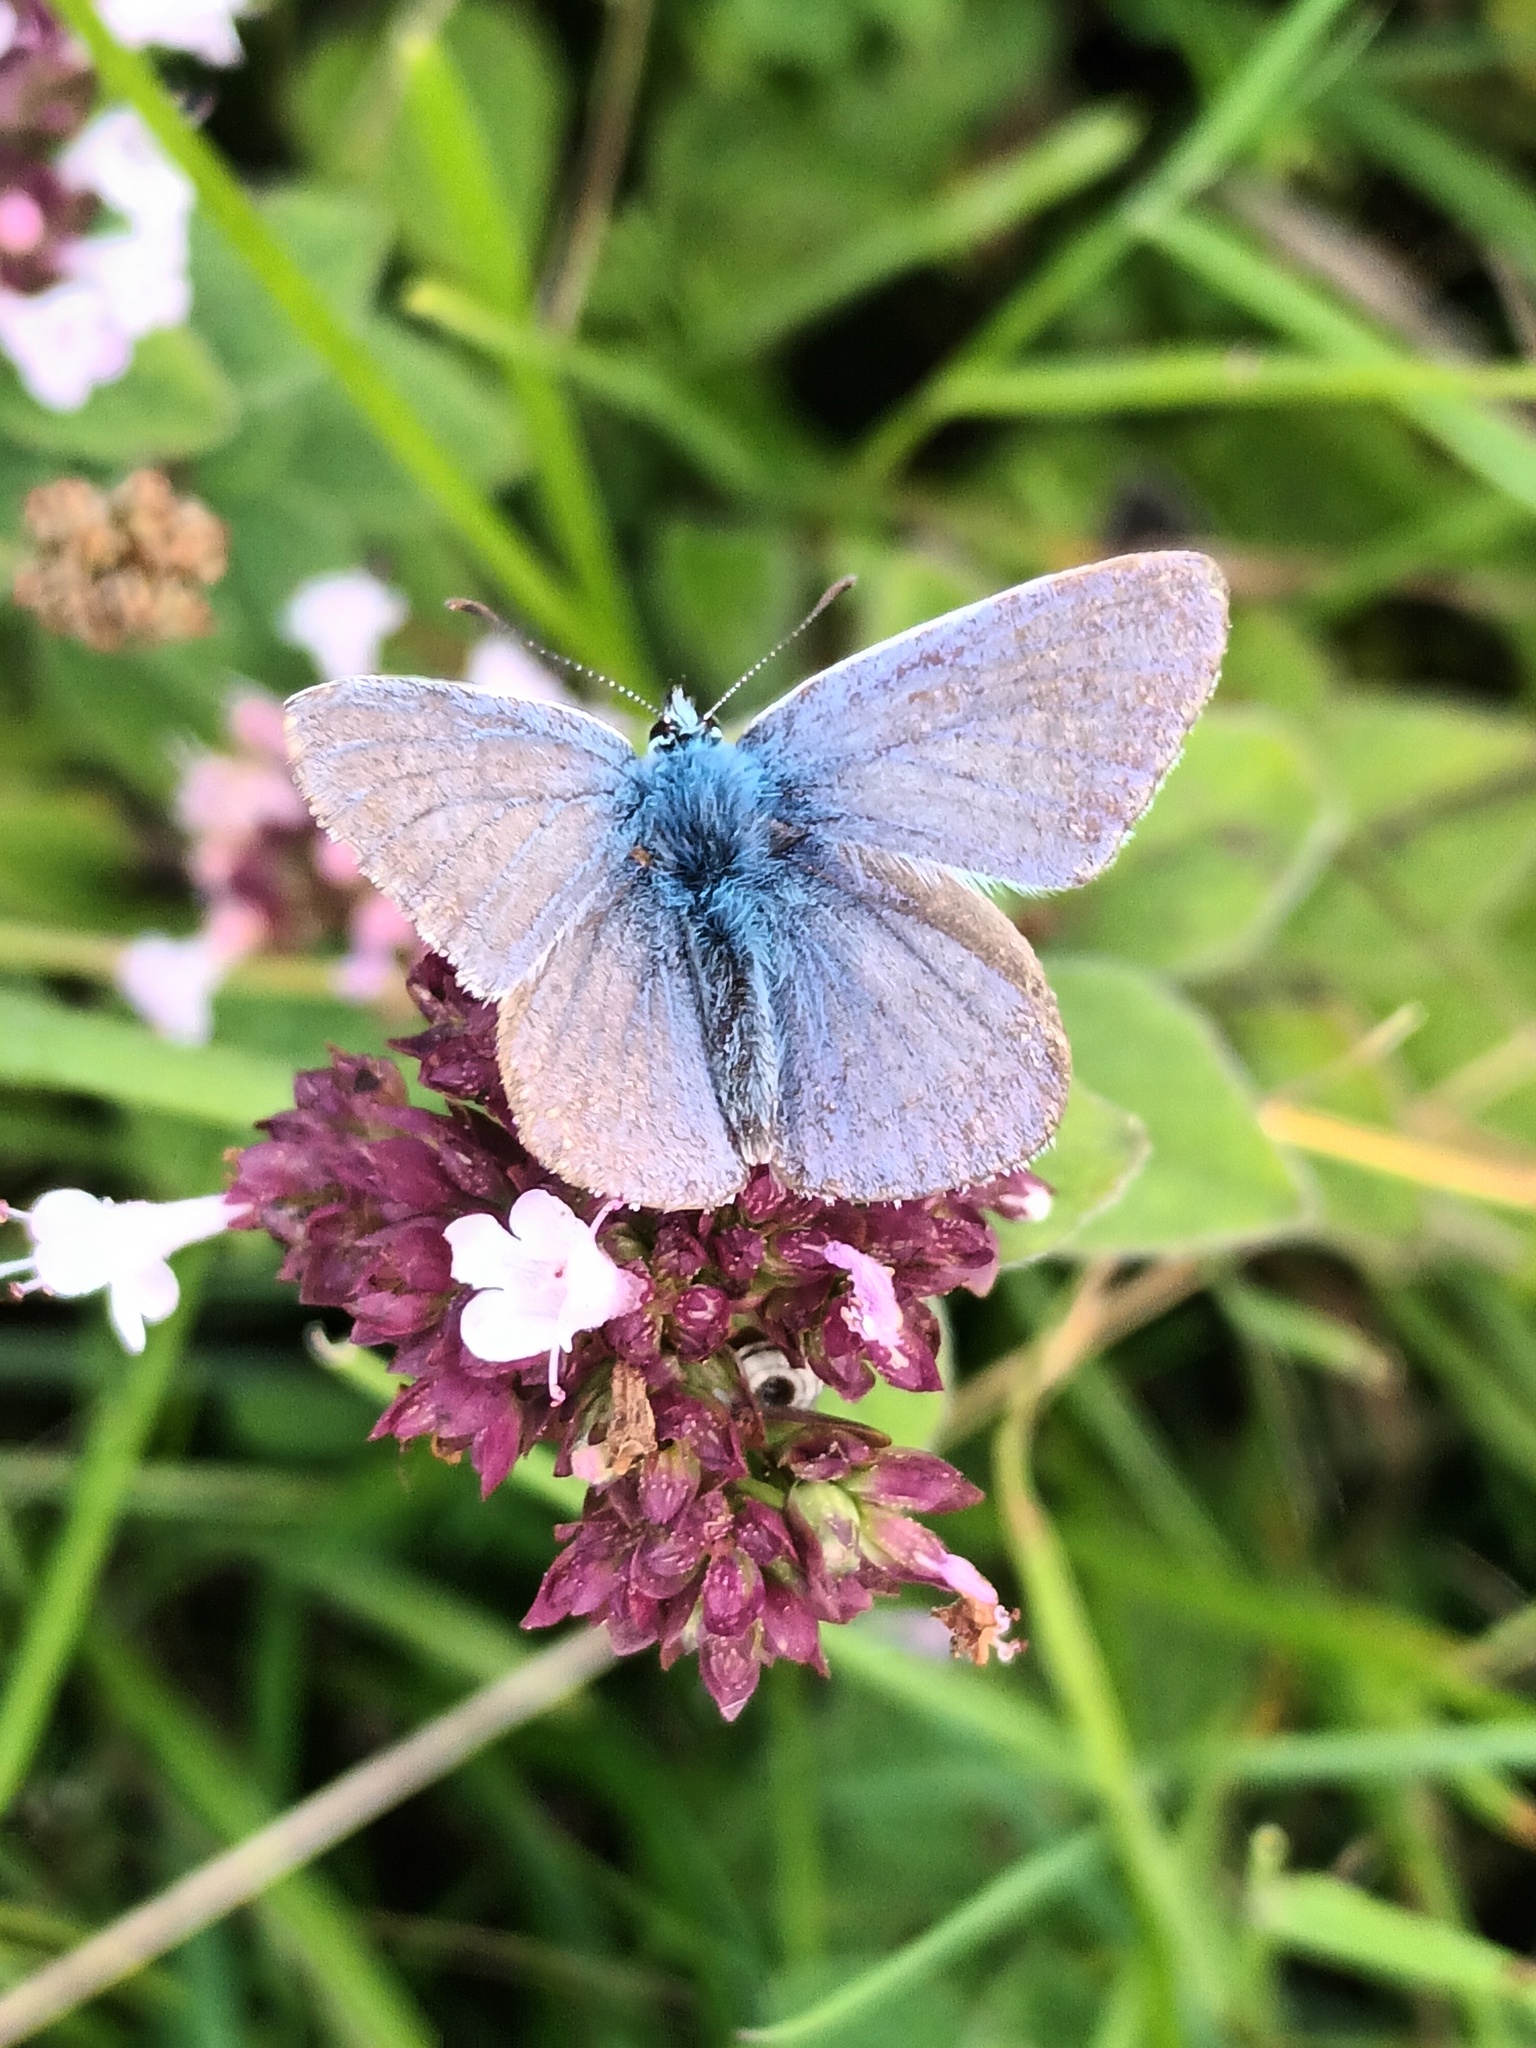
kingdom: Animalia
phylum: Arthropoda
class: Insecta
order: Lepidoptera
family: Lycaenidae
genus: Polyommatus
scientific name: Polyommatus icarus
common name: Common blue
